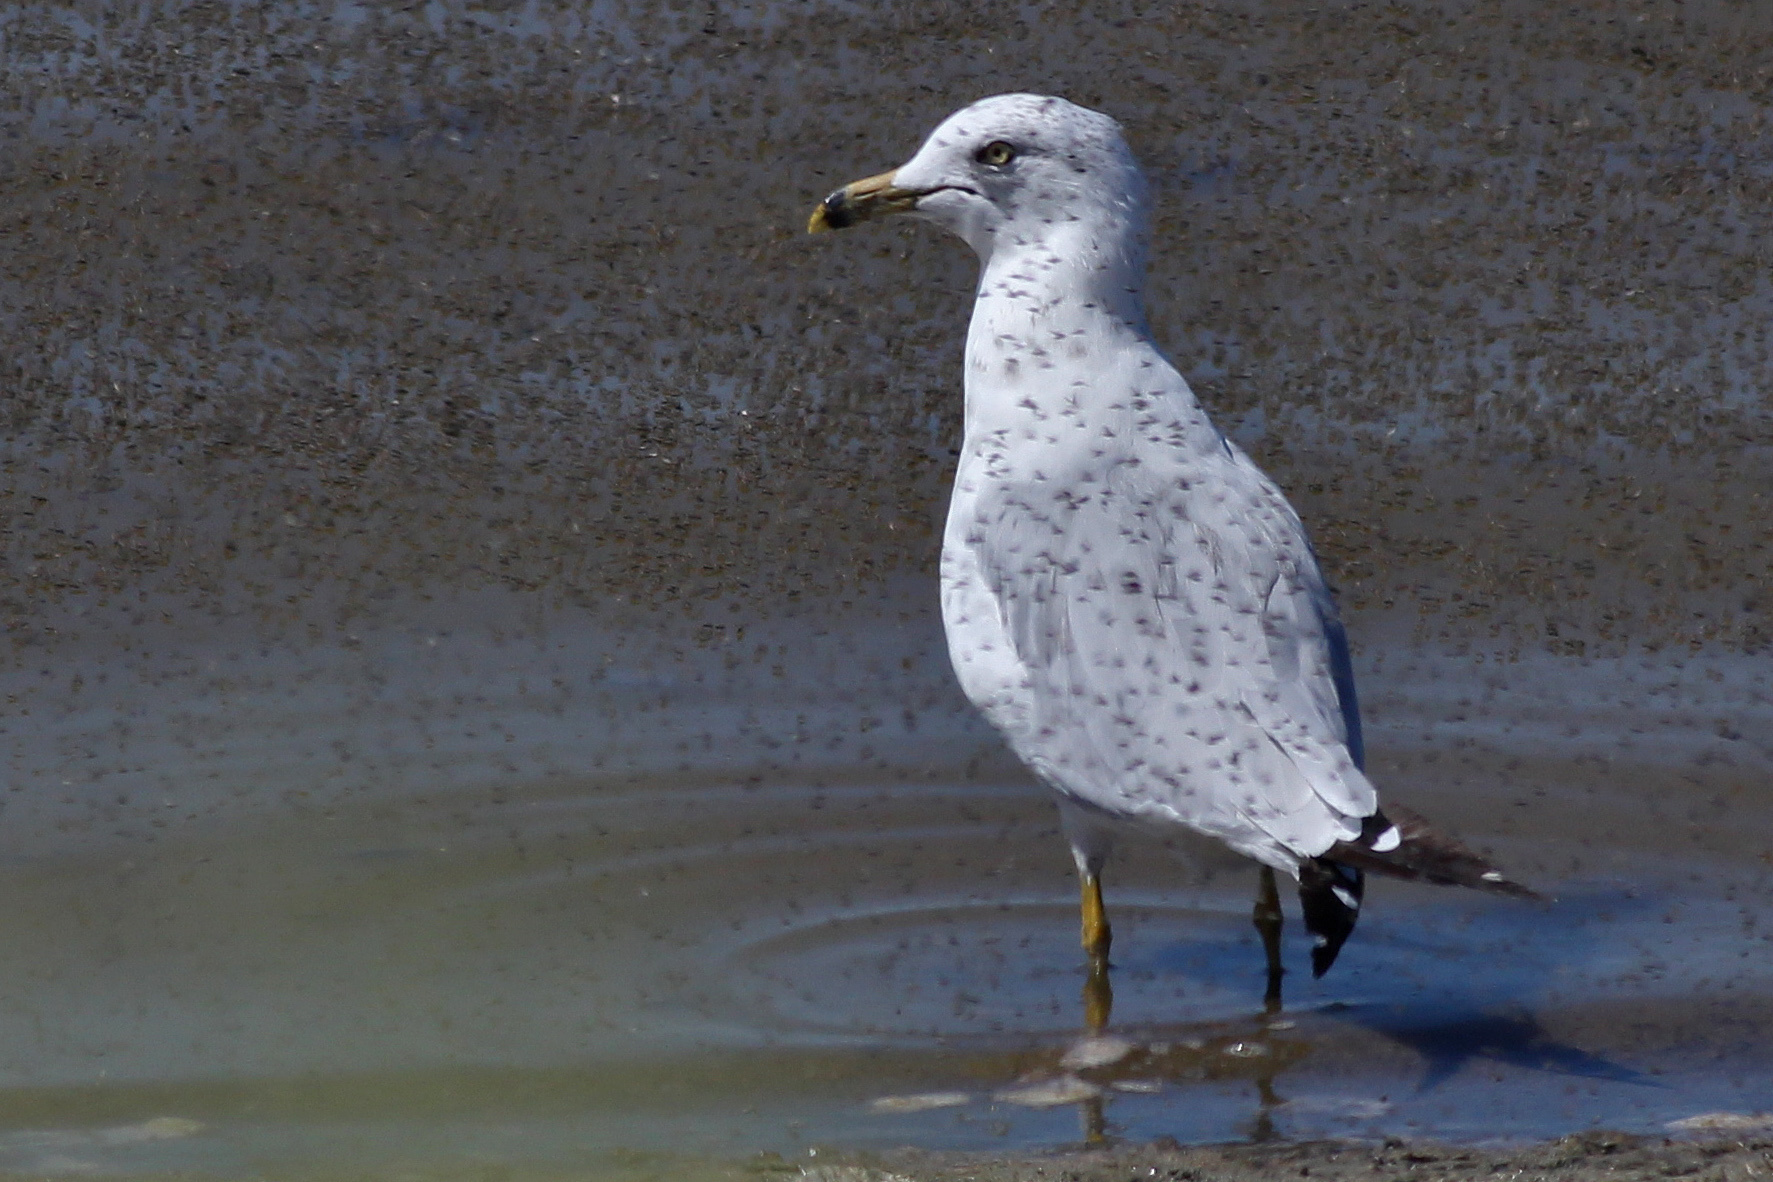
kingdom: Animalia
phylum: Chordata
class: Aves
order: Charadriiformes
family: Laridae
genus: Larus
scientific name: Larus delawarensis
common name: Ring-billed gull
